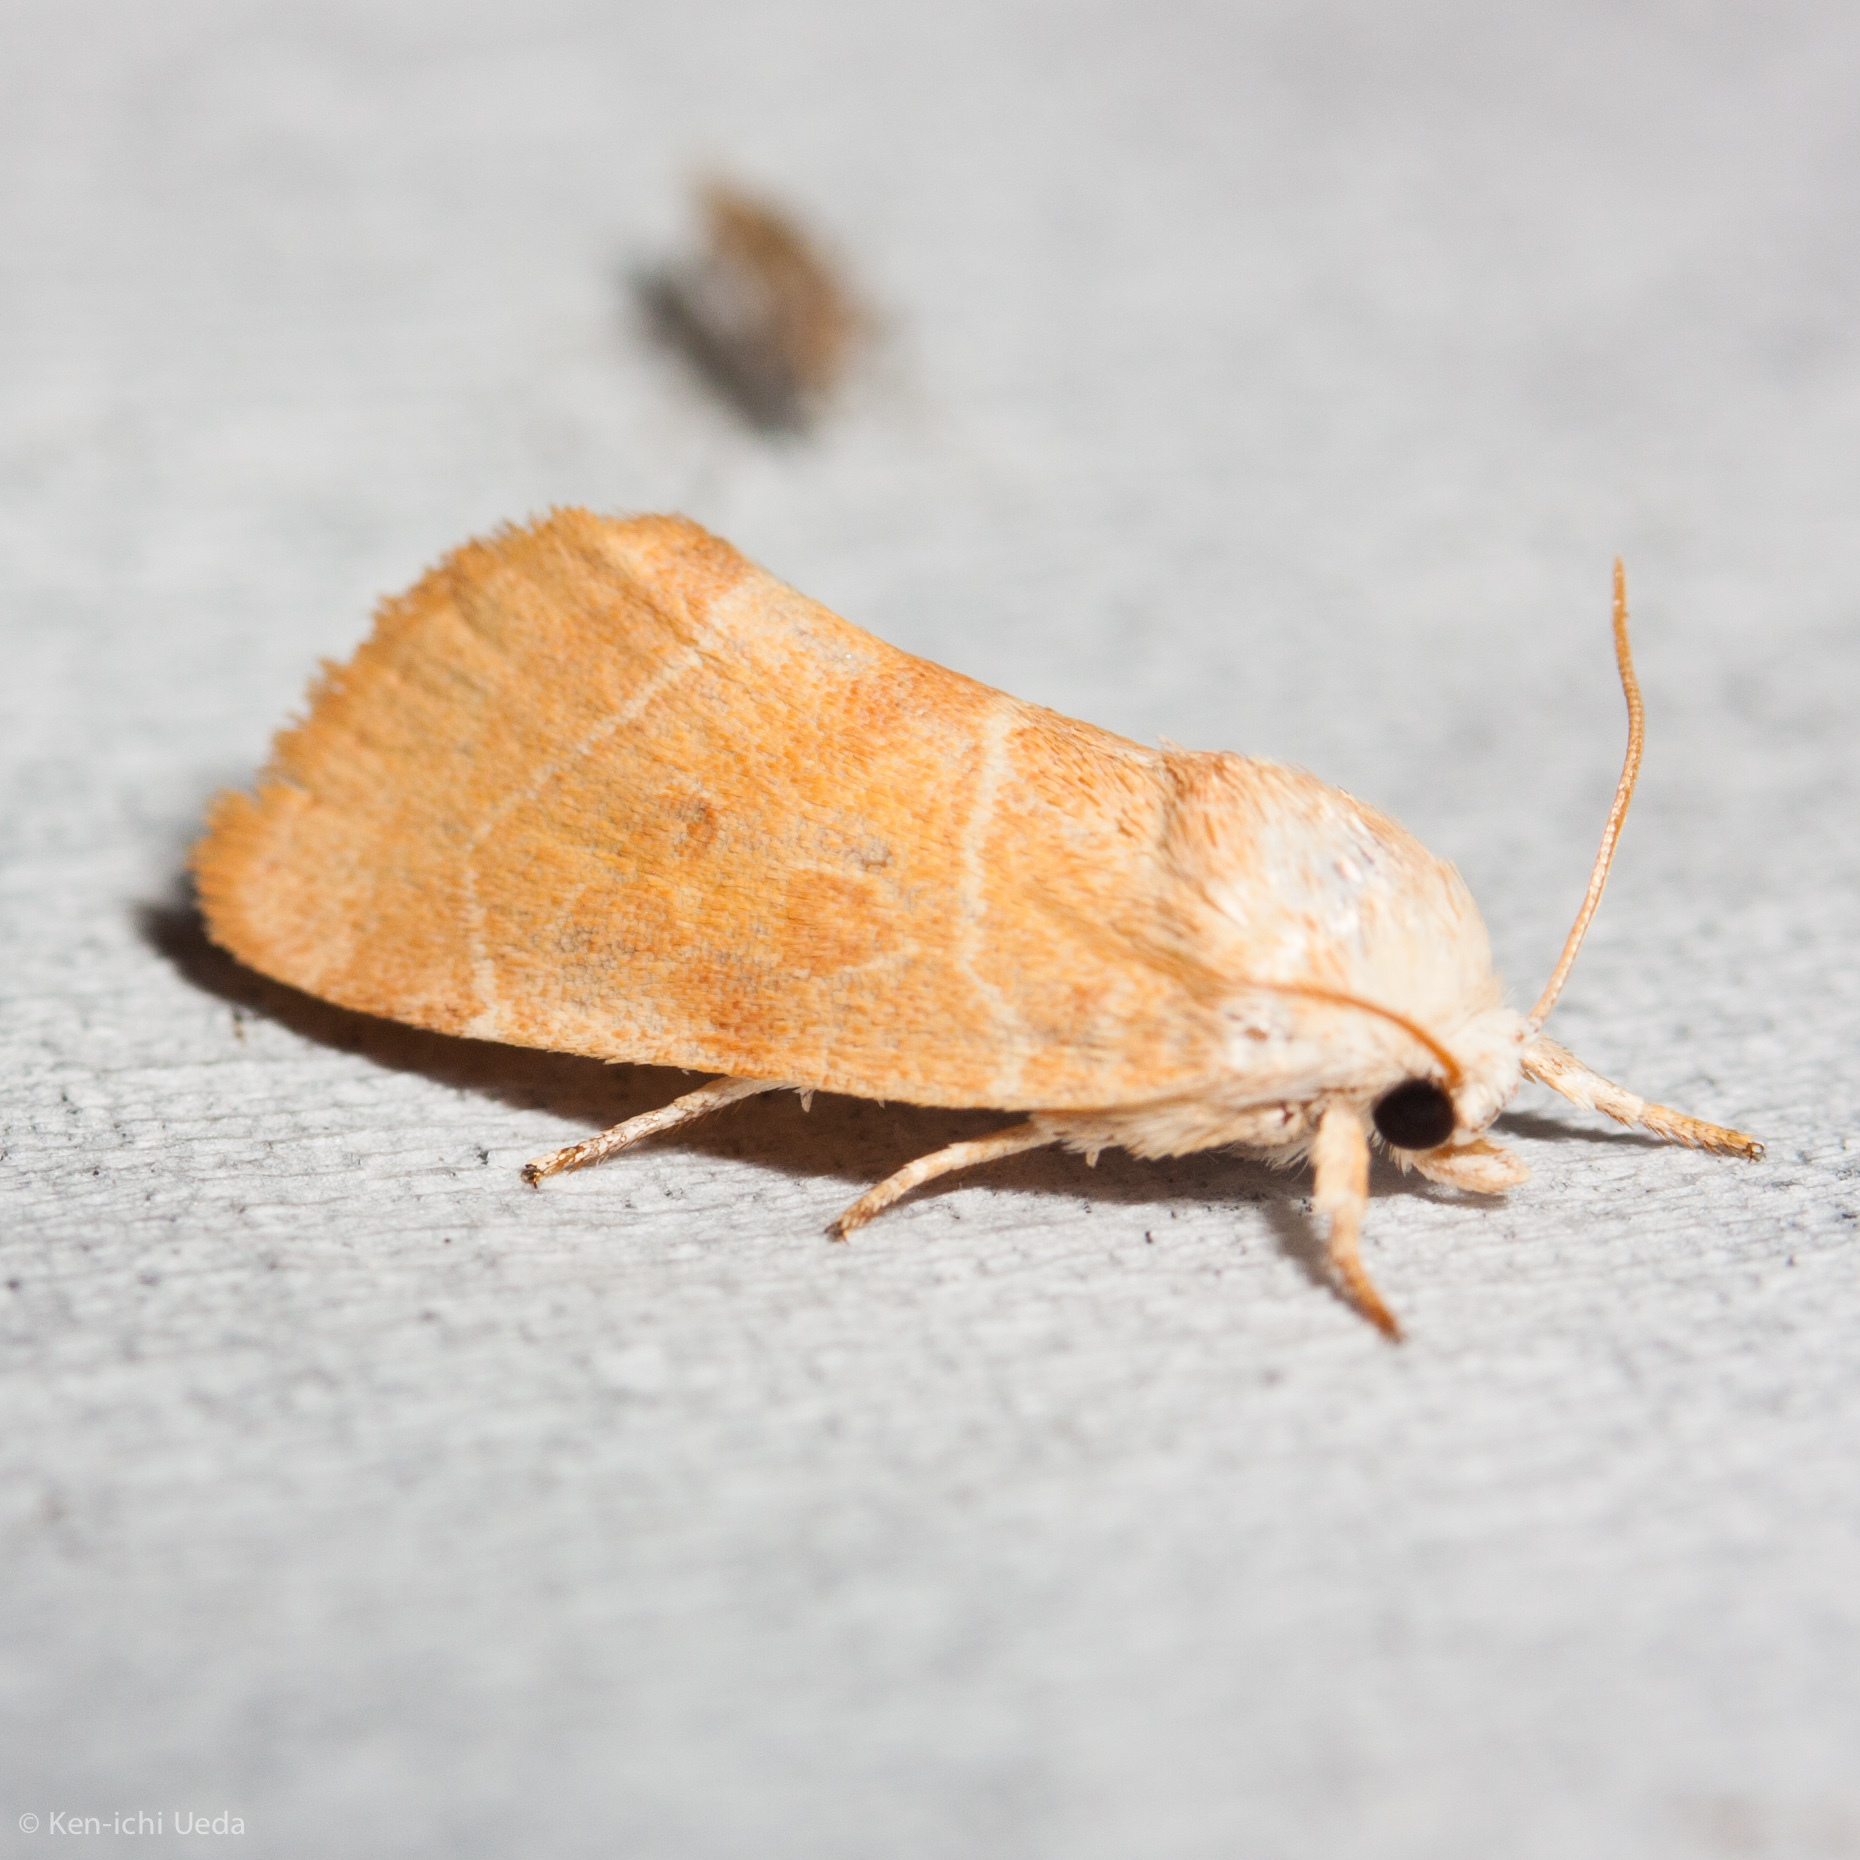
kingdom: Animalia
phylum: Arthropoda
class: Insecta
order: Lepidoptera
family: Noctuidae
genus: Cosmia
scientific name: Cosmia calami
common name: American dun-bar moth
